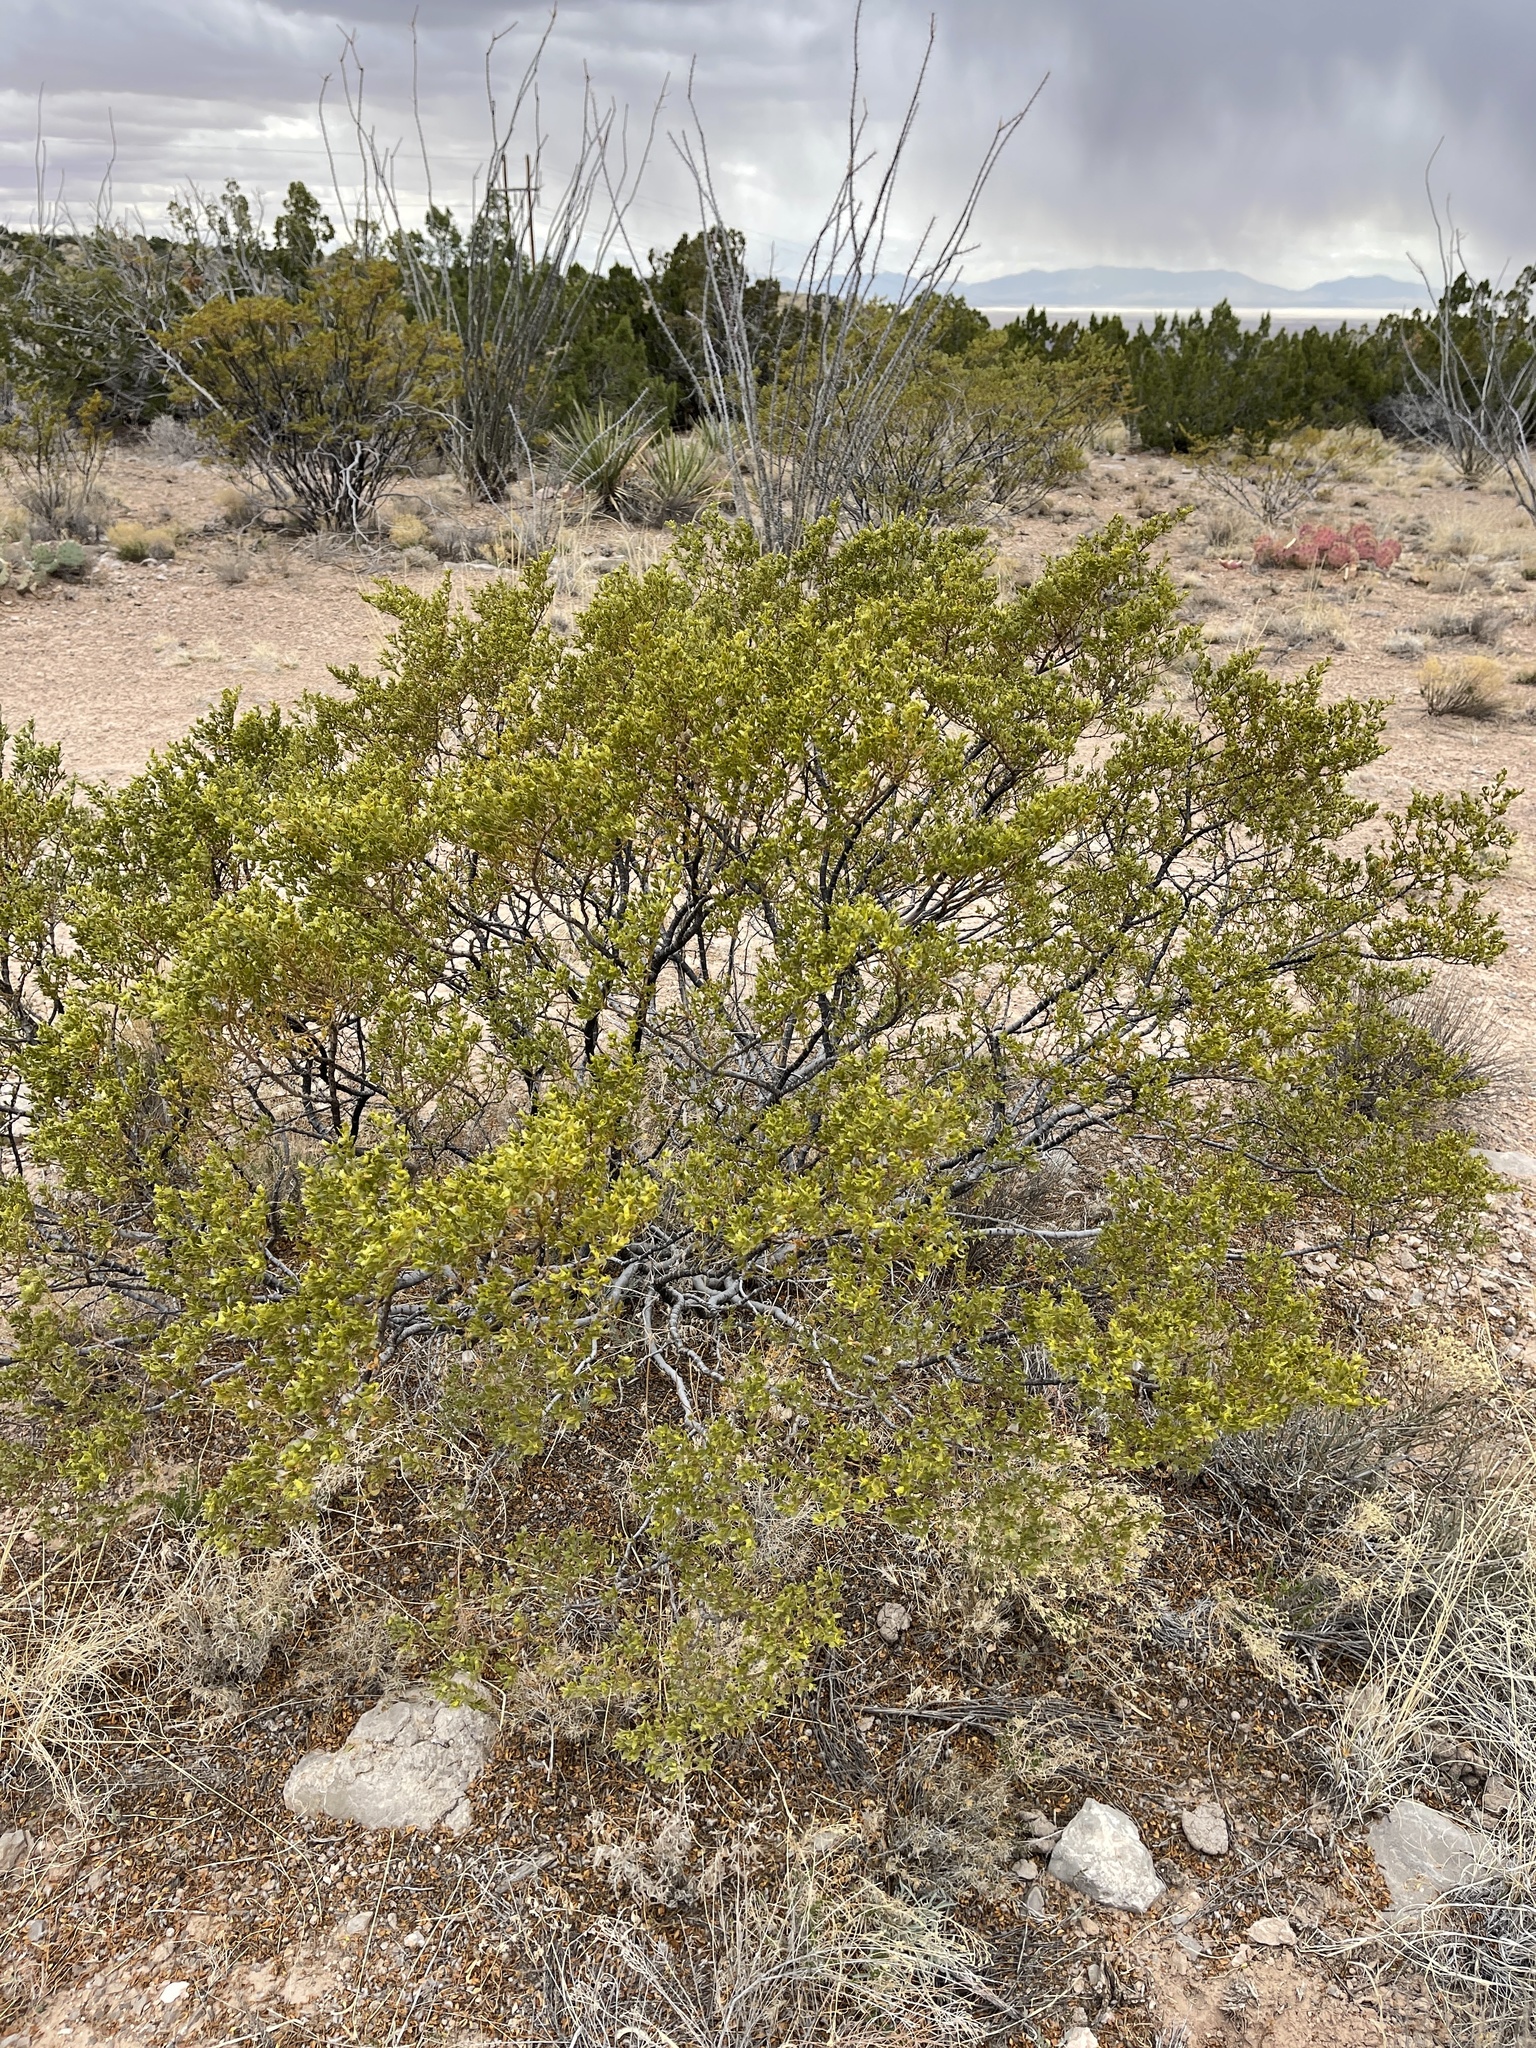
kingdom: Plantae
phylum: Tracheophyta
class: Magnoliopsida
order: Zygophyllales
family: Zygophyllaceae
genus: Larrea
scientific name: Larrea tridentata
